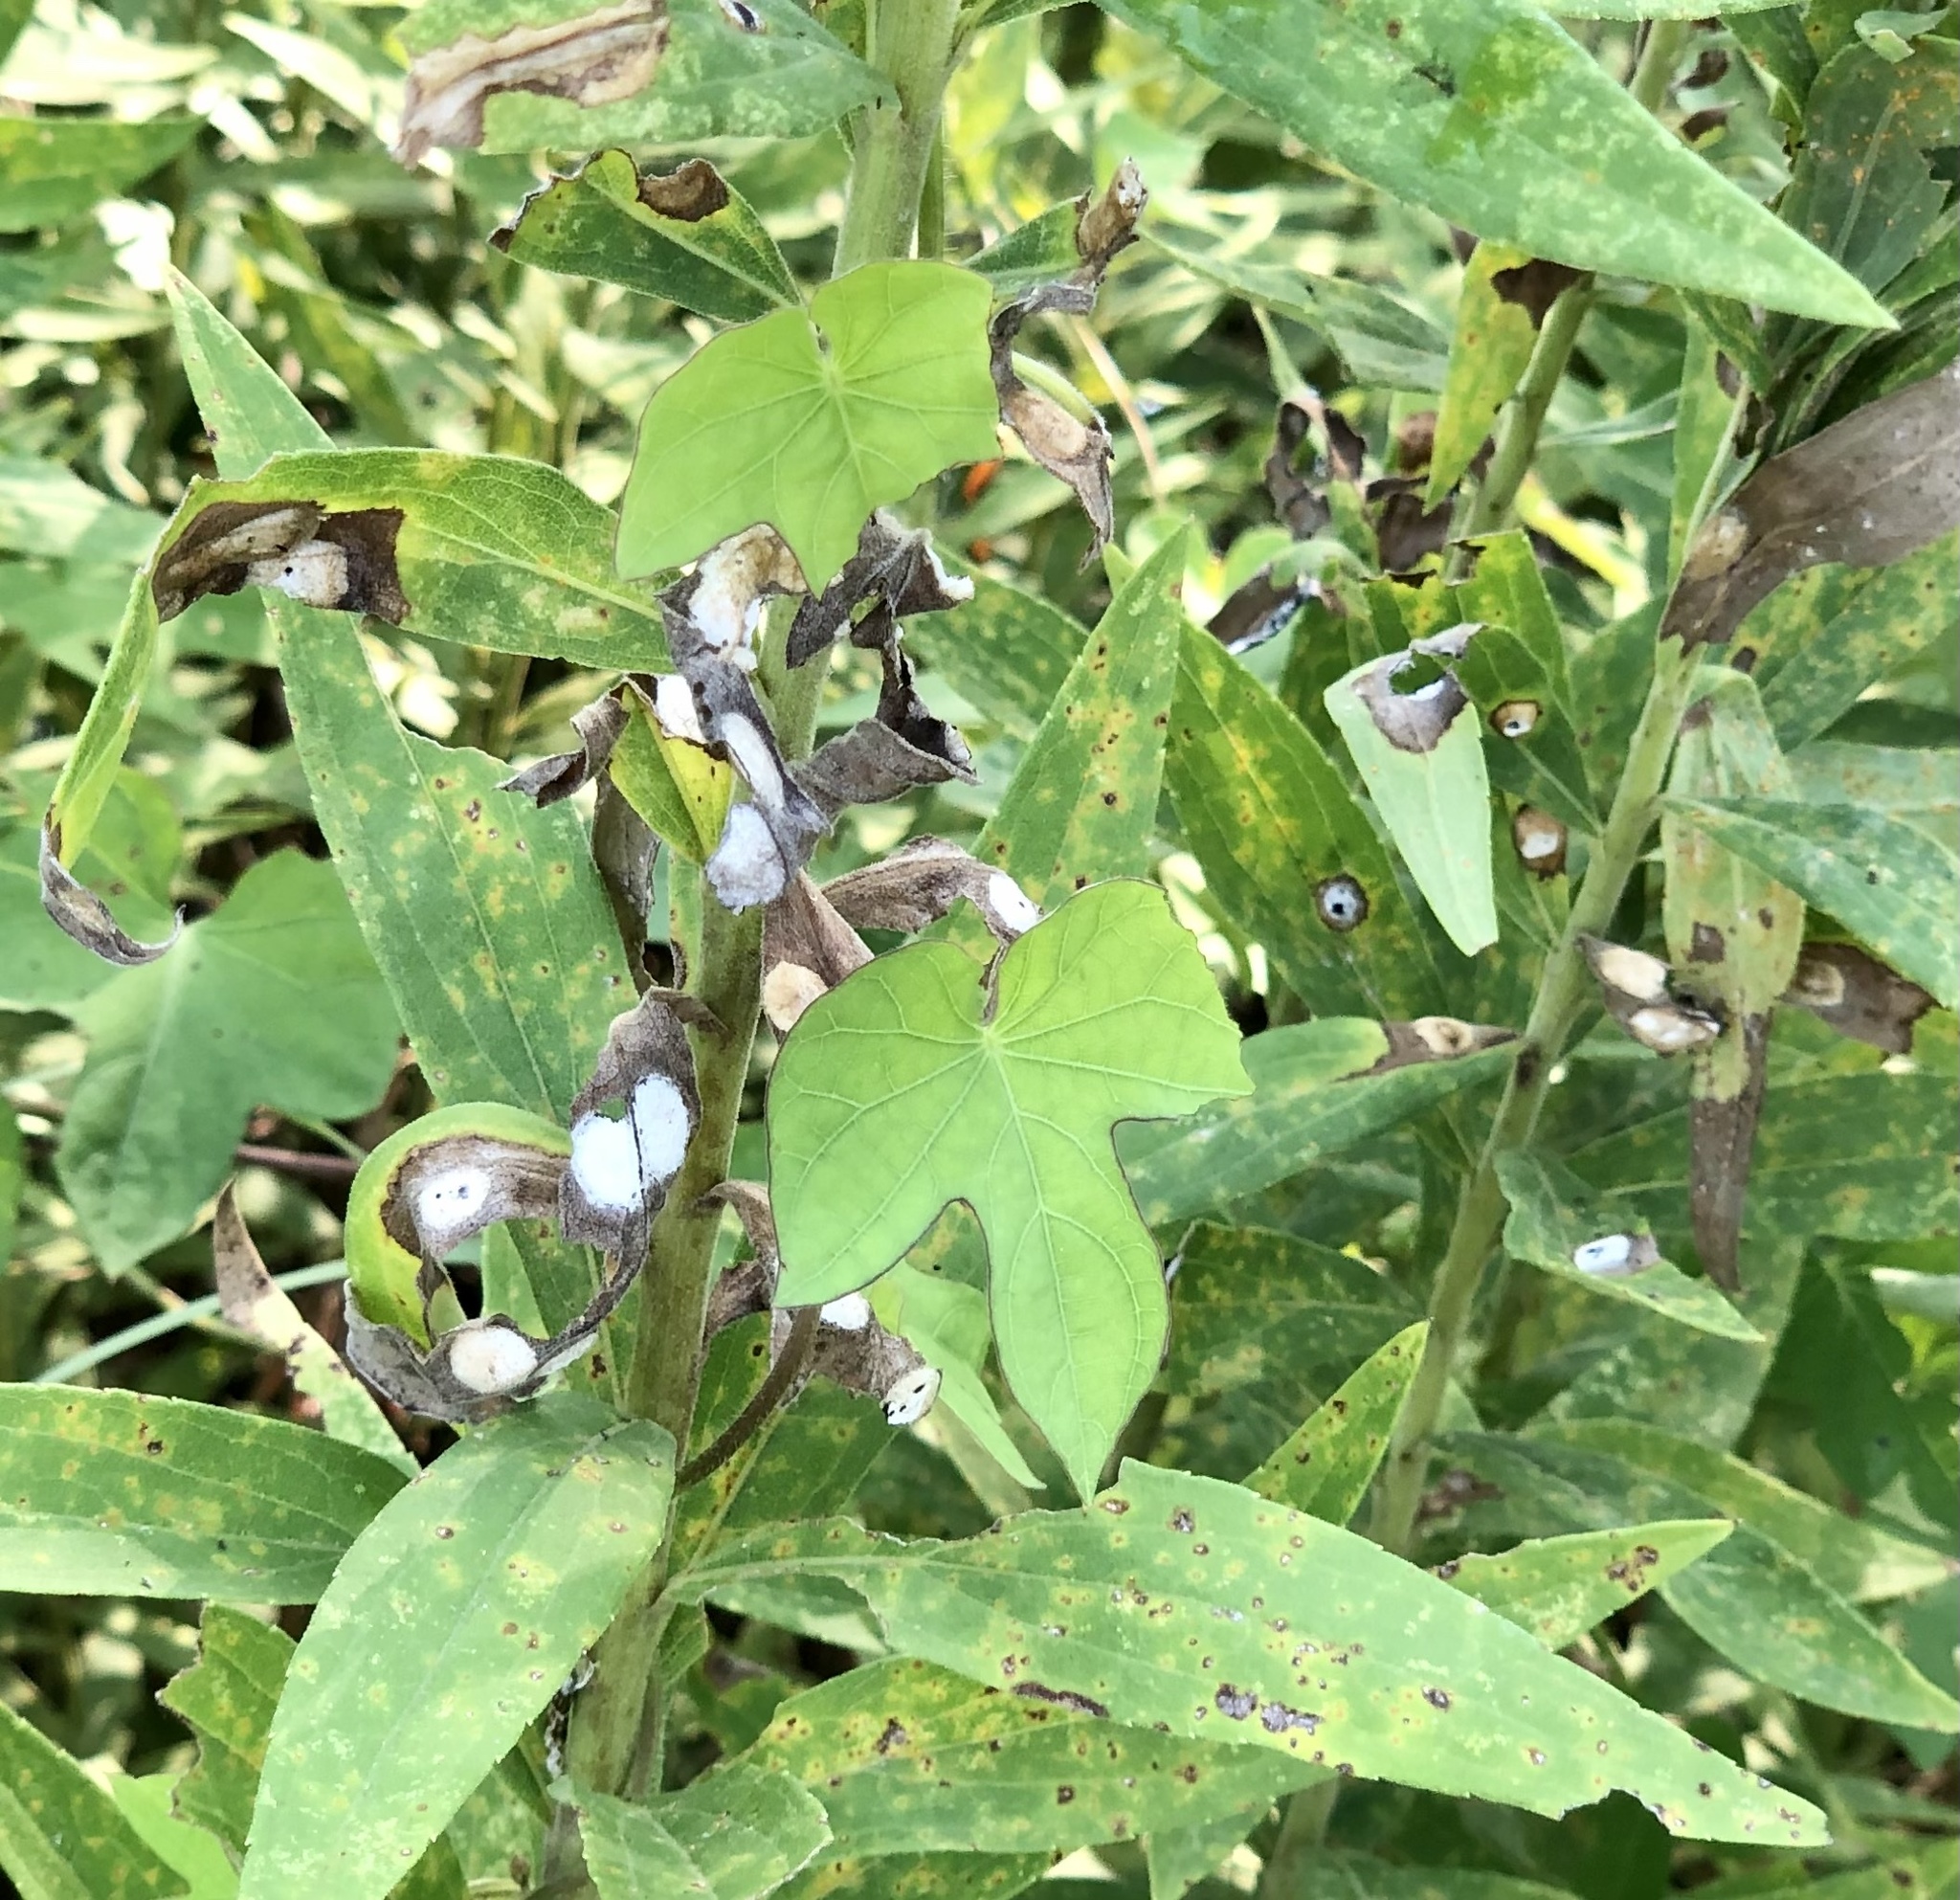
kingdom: Animalia
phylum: Arthropoda
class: Insecta
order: Diptera
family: Cecidomyiidae
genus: Asteromyia
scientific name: Asteromyia carbonifera
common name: Carbonifera goldenrod gall midge
